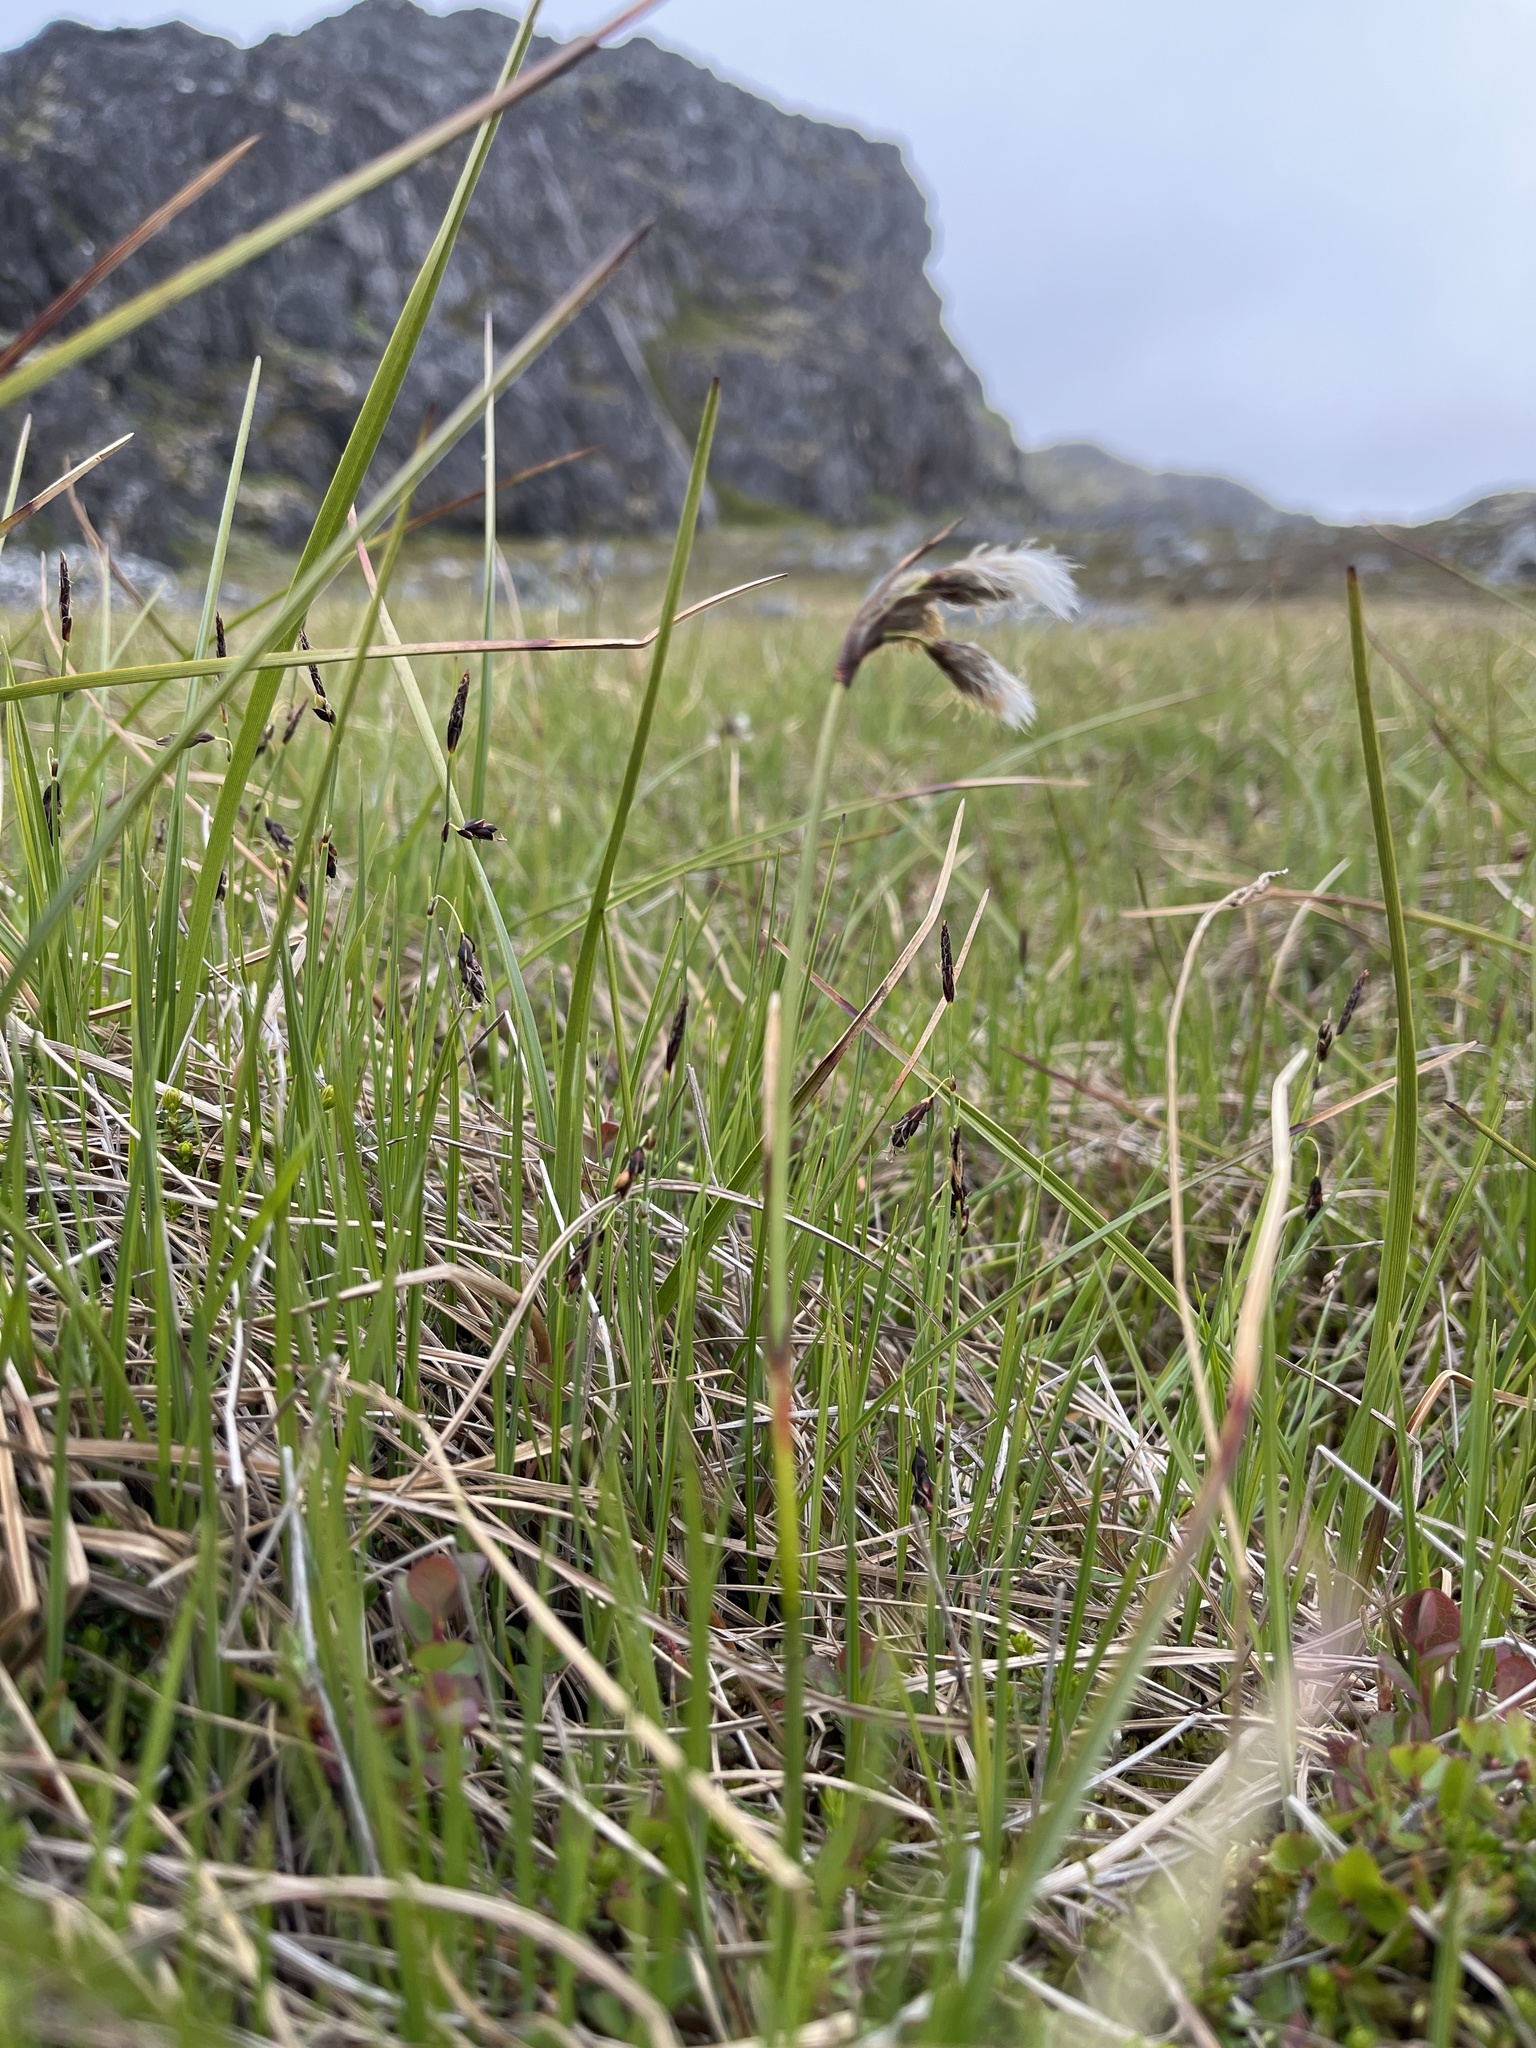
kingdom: Plantae
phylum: Tracheophyta
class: Liliopsida
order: Poales
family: Cyperaceae
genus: Eriophorum
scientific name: Eriophorum angustifolium
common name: Common cottongrass
